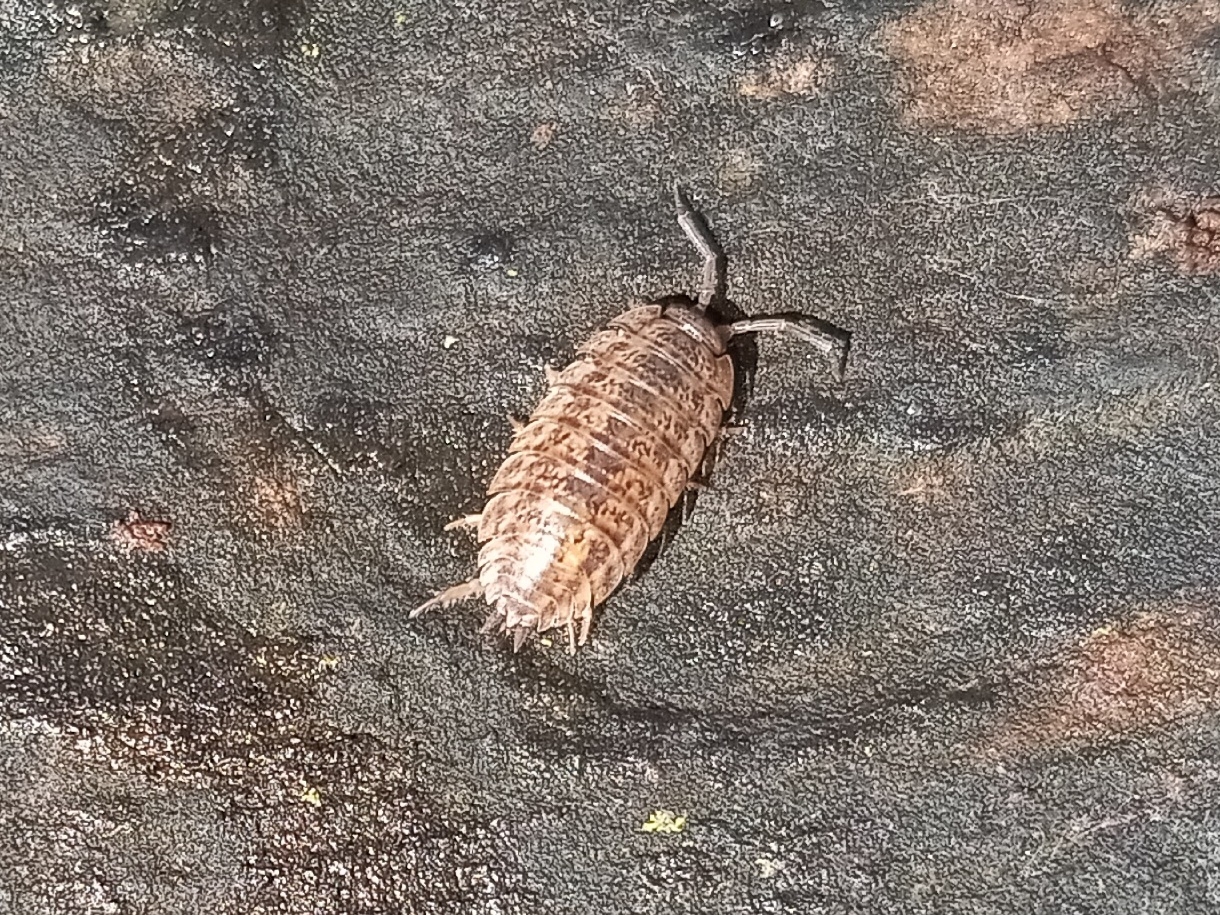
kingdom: Animalia
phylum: Arthropoda
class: Malacostraca
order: Isopoda
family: Trachelipodidae
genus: Trachelipus
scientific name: Trachelipus rathkii
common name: Isopod
